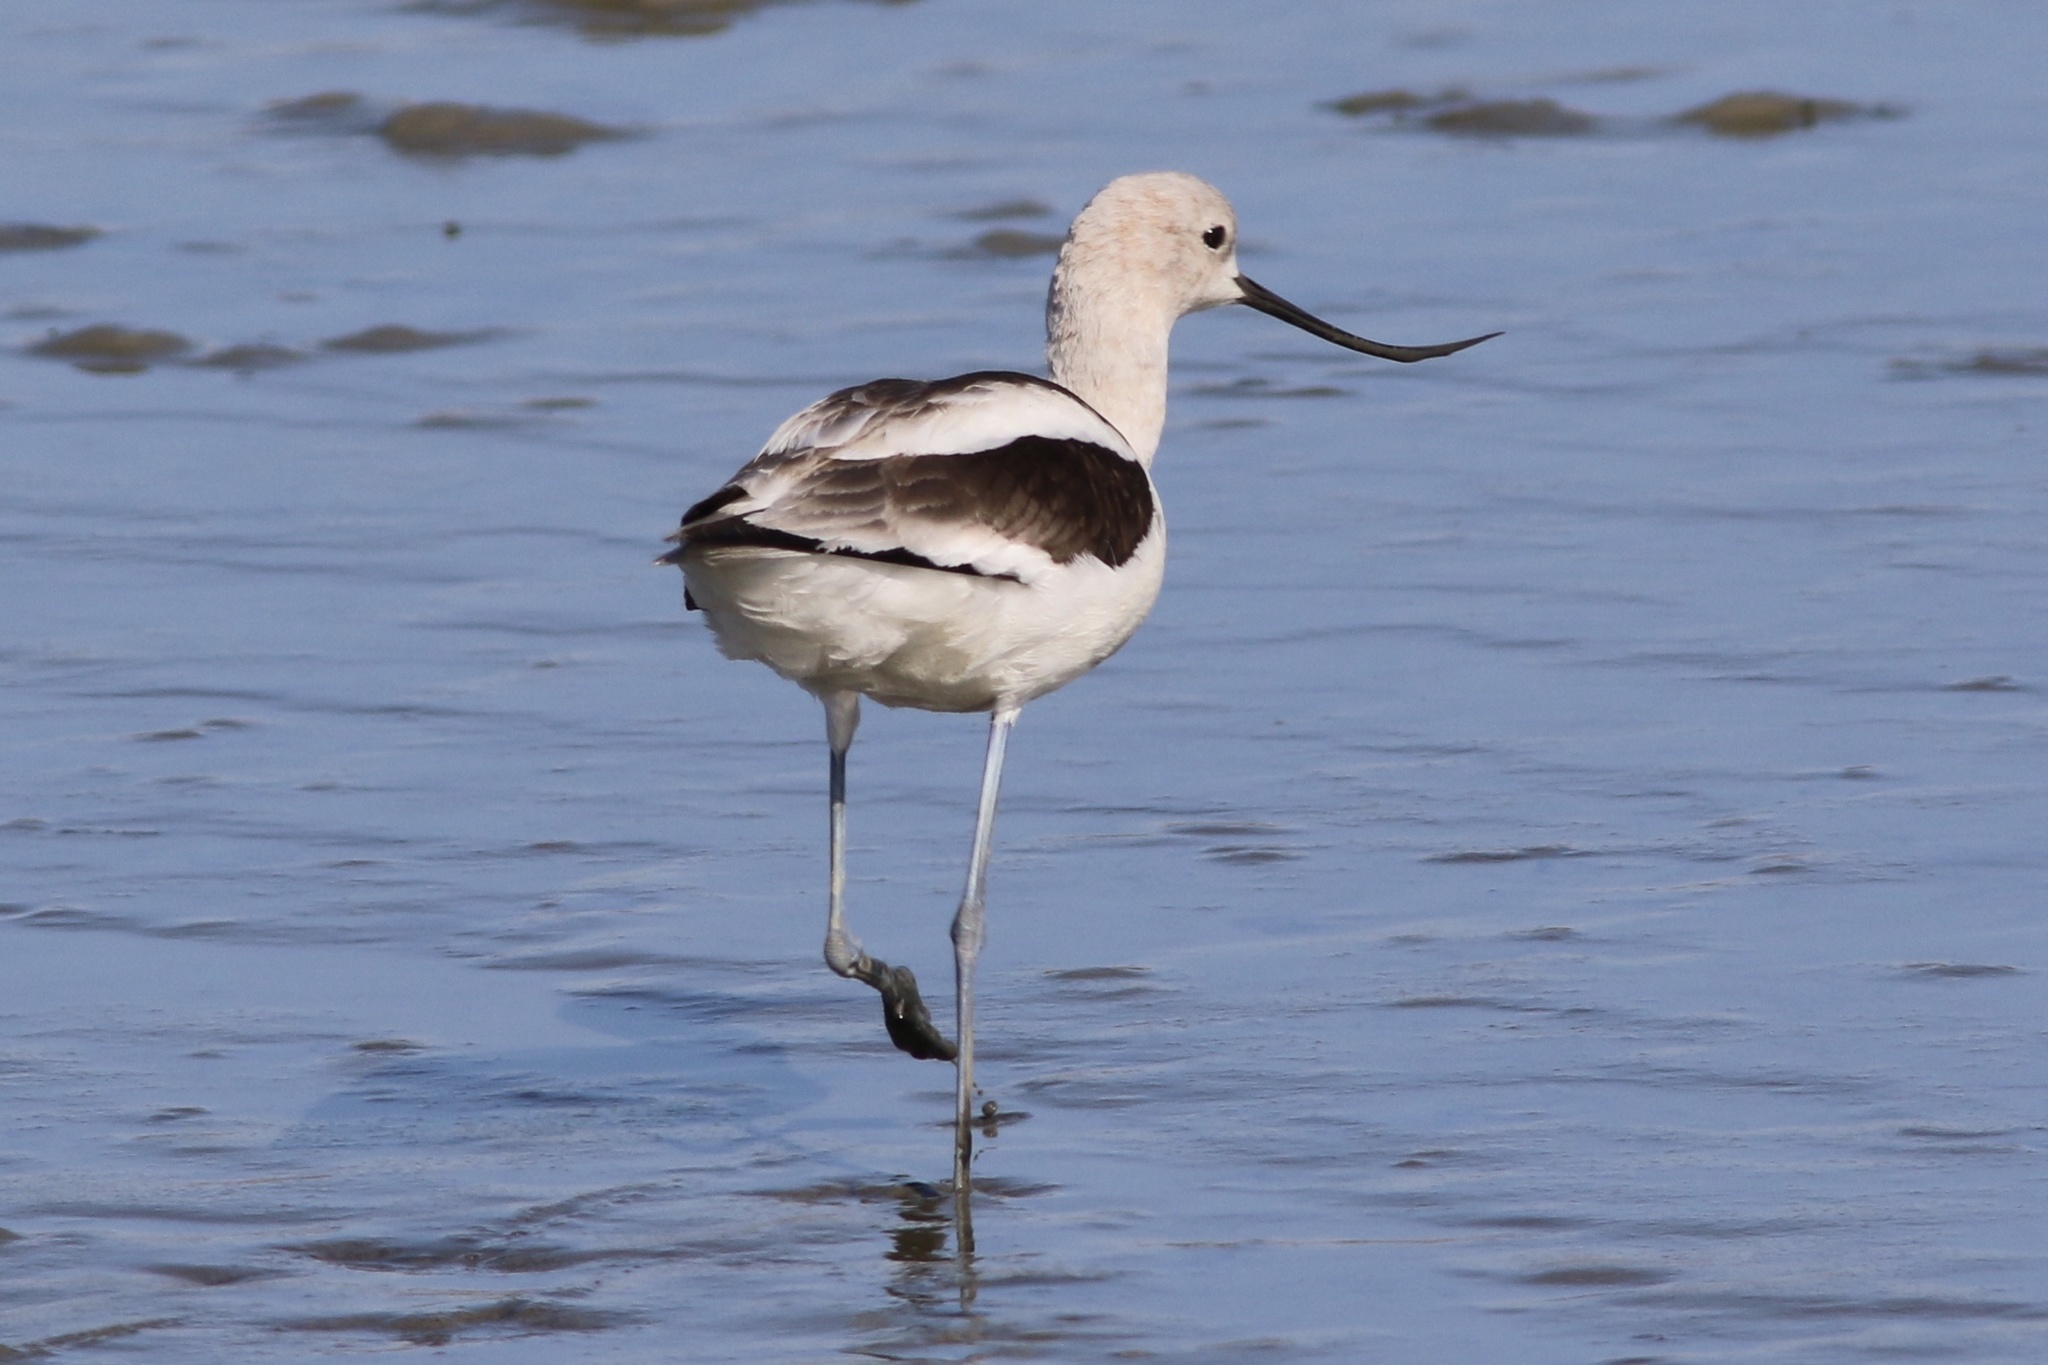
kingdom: Animalia
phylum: Chordata
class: Aves
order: Charadriiformes
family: Recurvirostridae
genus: Recurvirostra
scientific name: Recurvirostra americana
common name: American avocet
